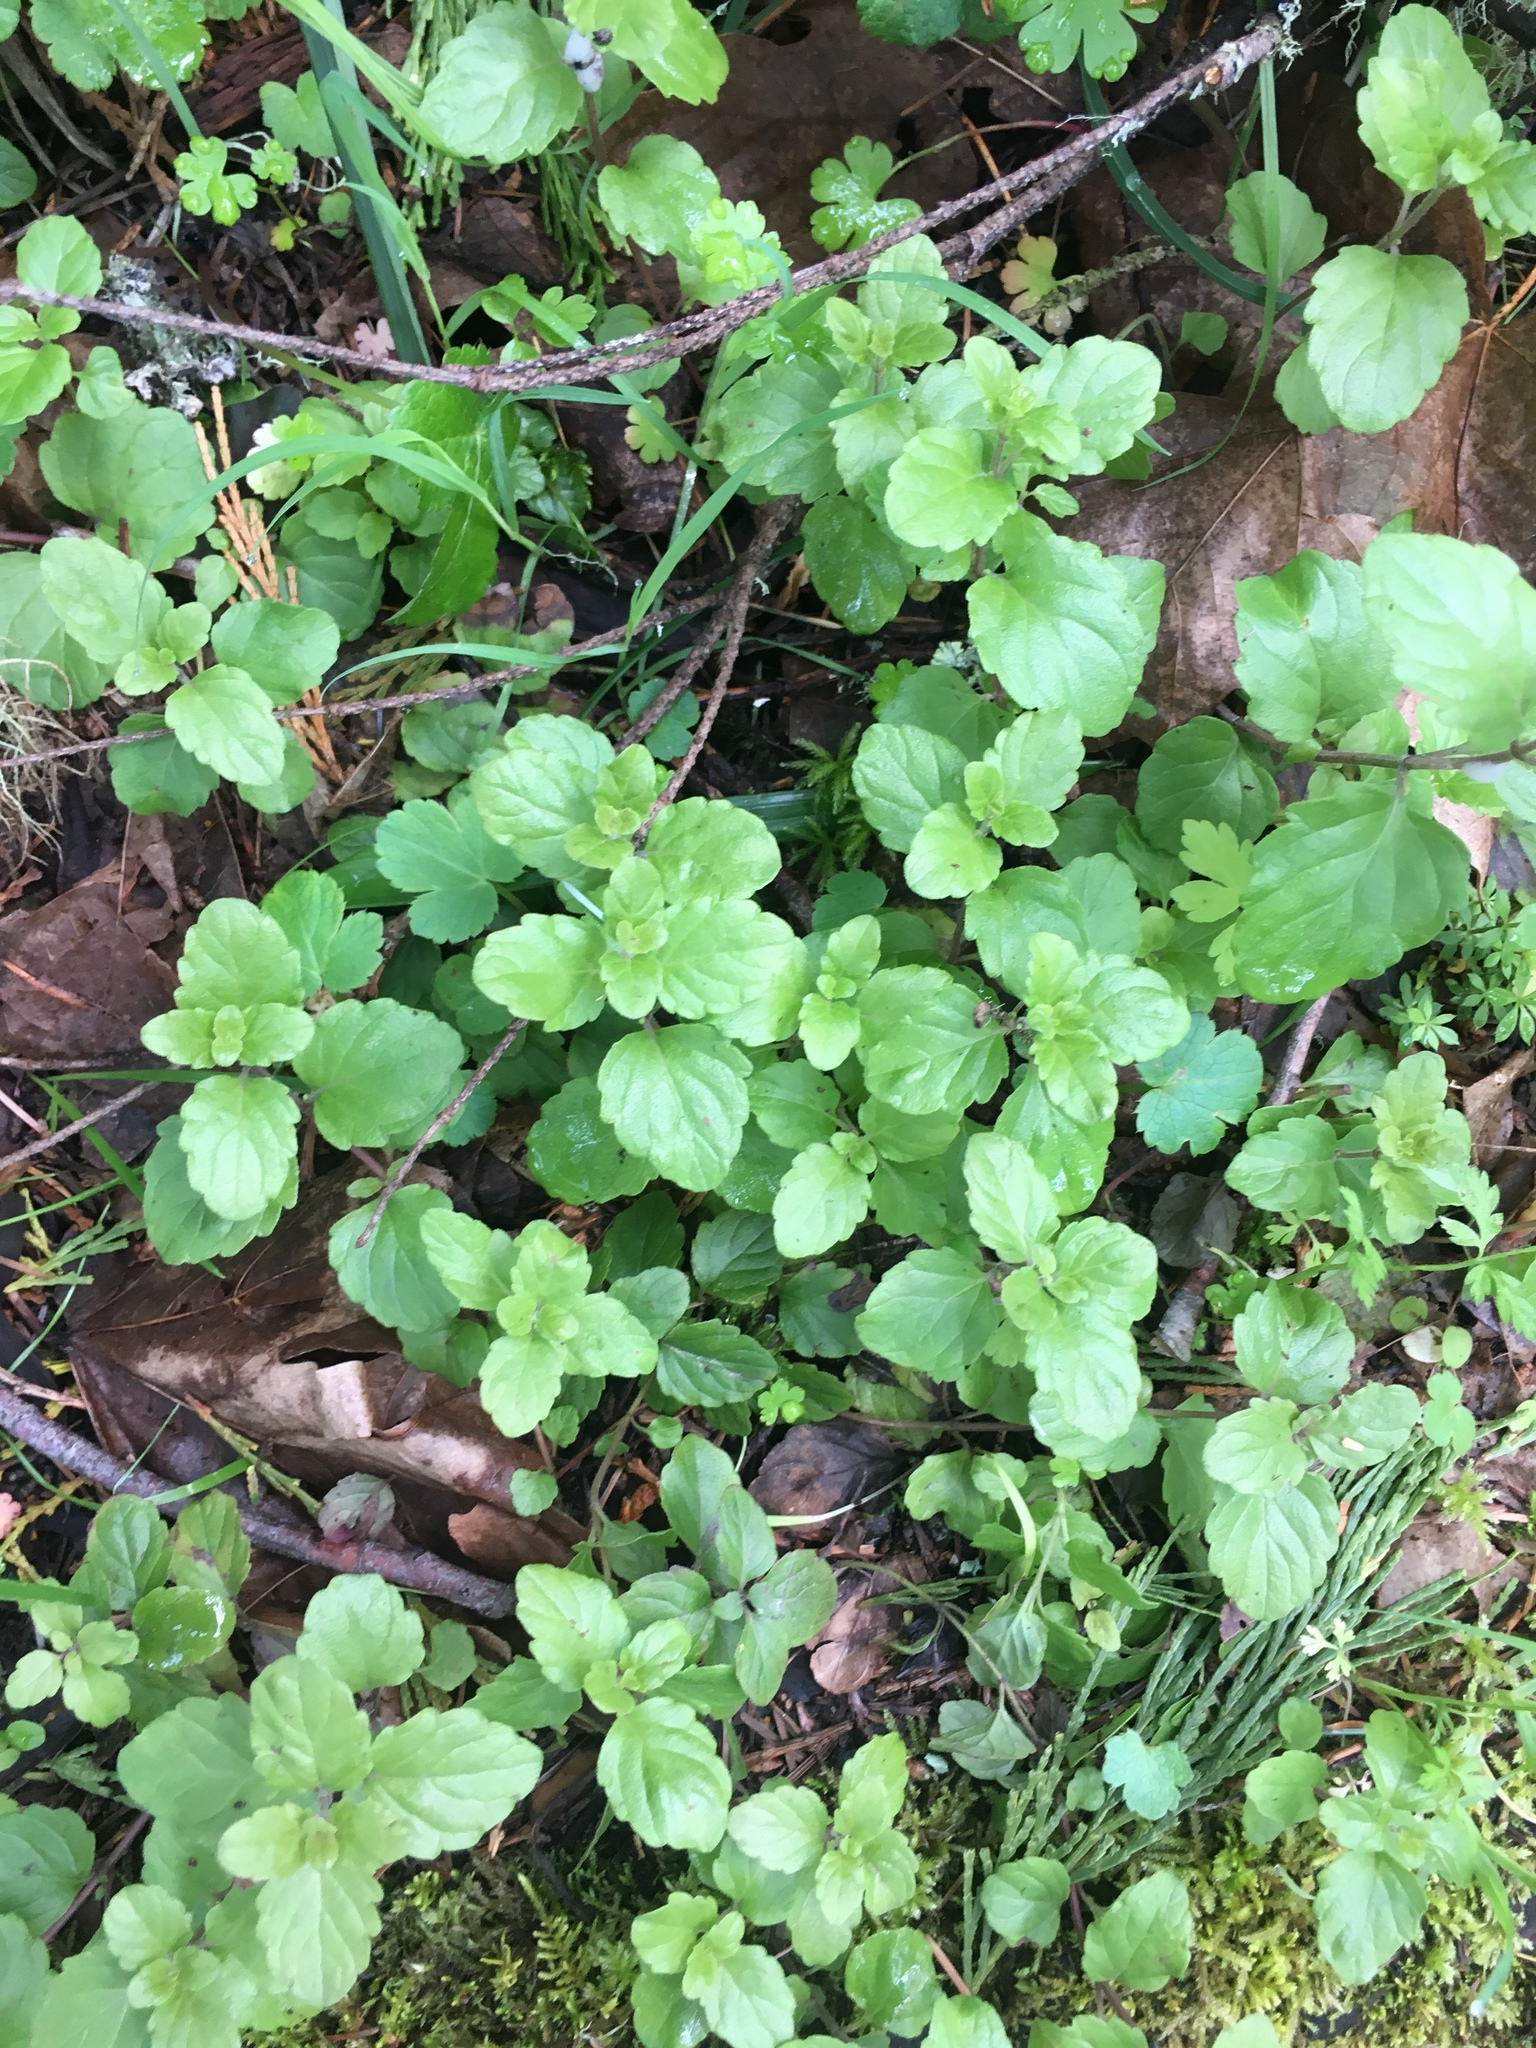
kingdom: Plantae
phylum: Tracheophyta
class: Magnoliopsida
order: Lamiales
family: Lamiaceae
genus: Micromeria
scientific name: Micromeria douglasii
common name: Yerba buena
